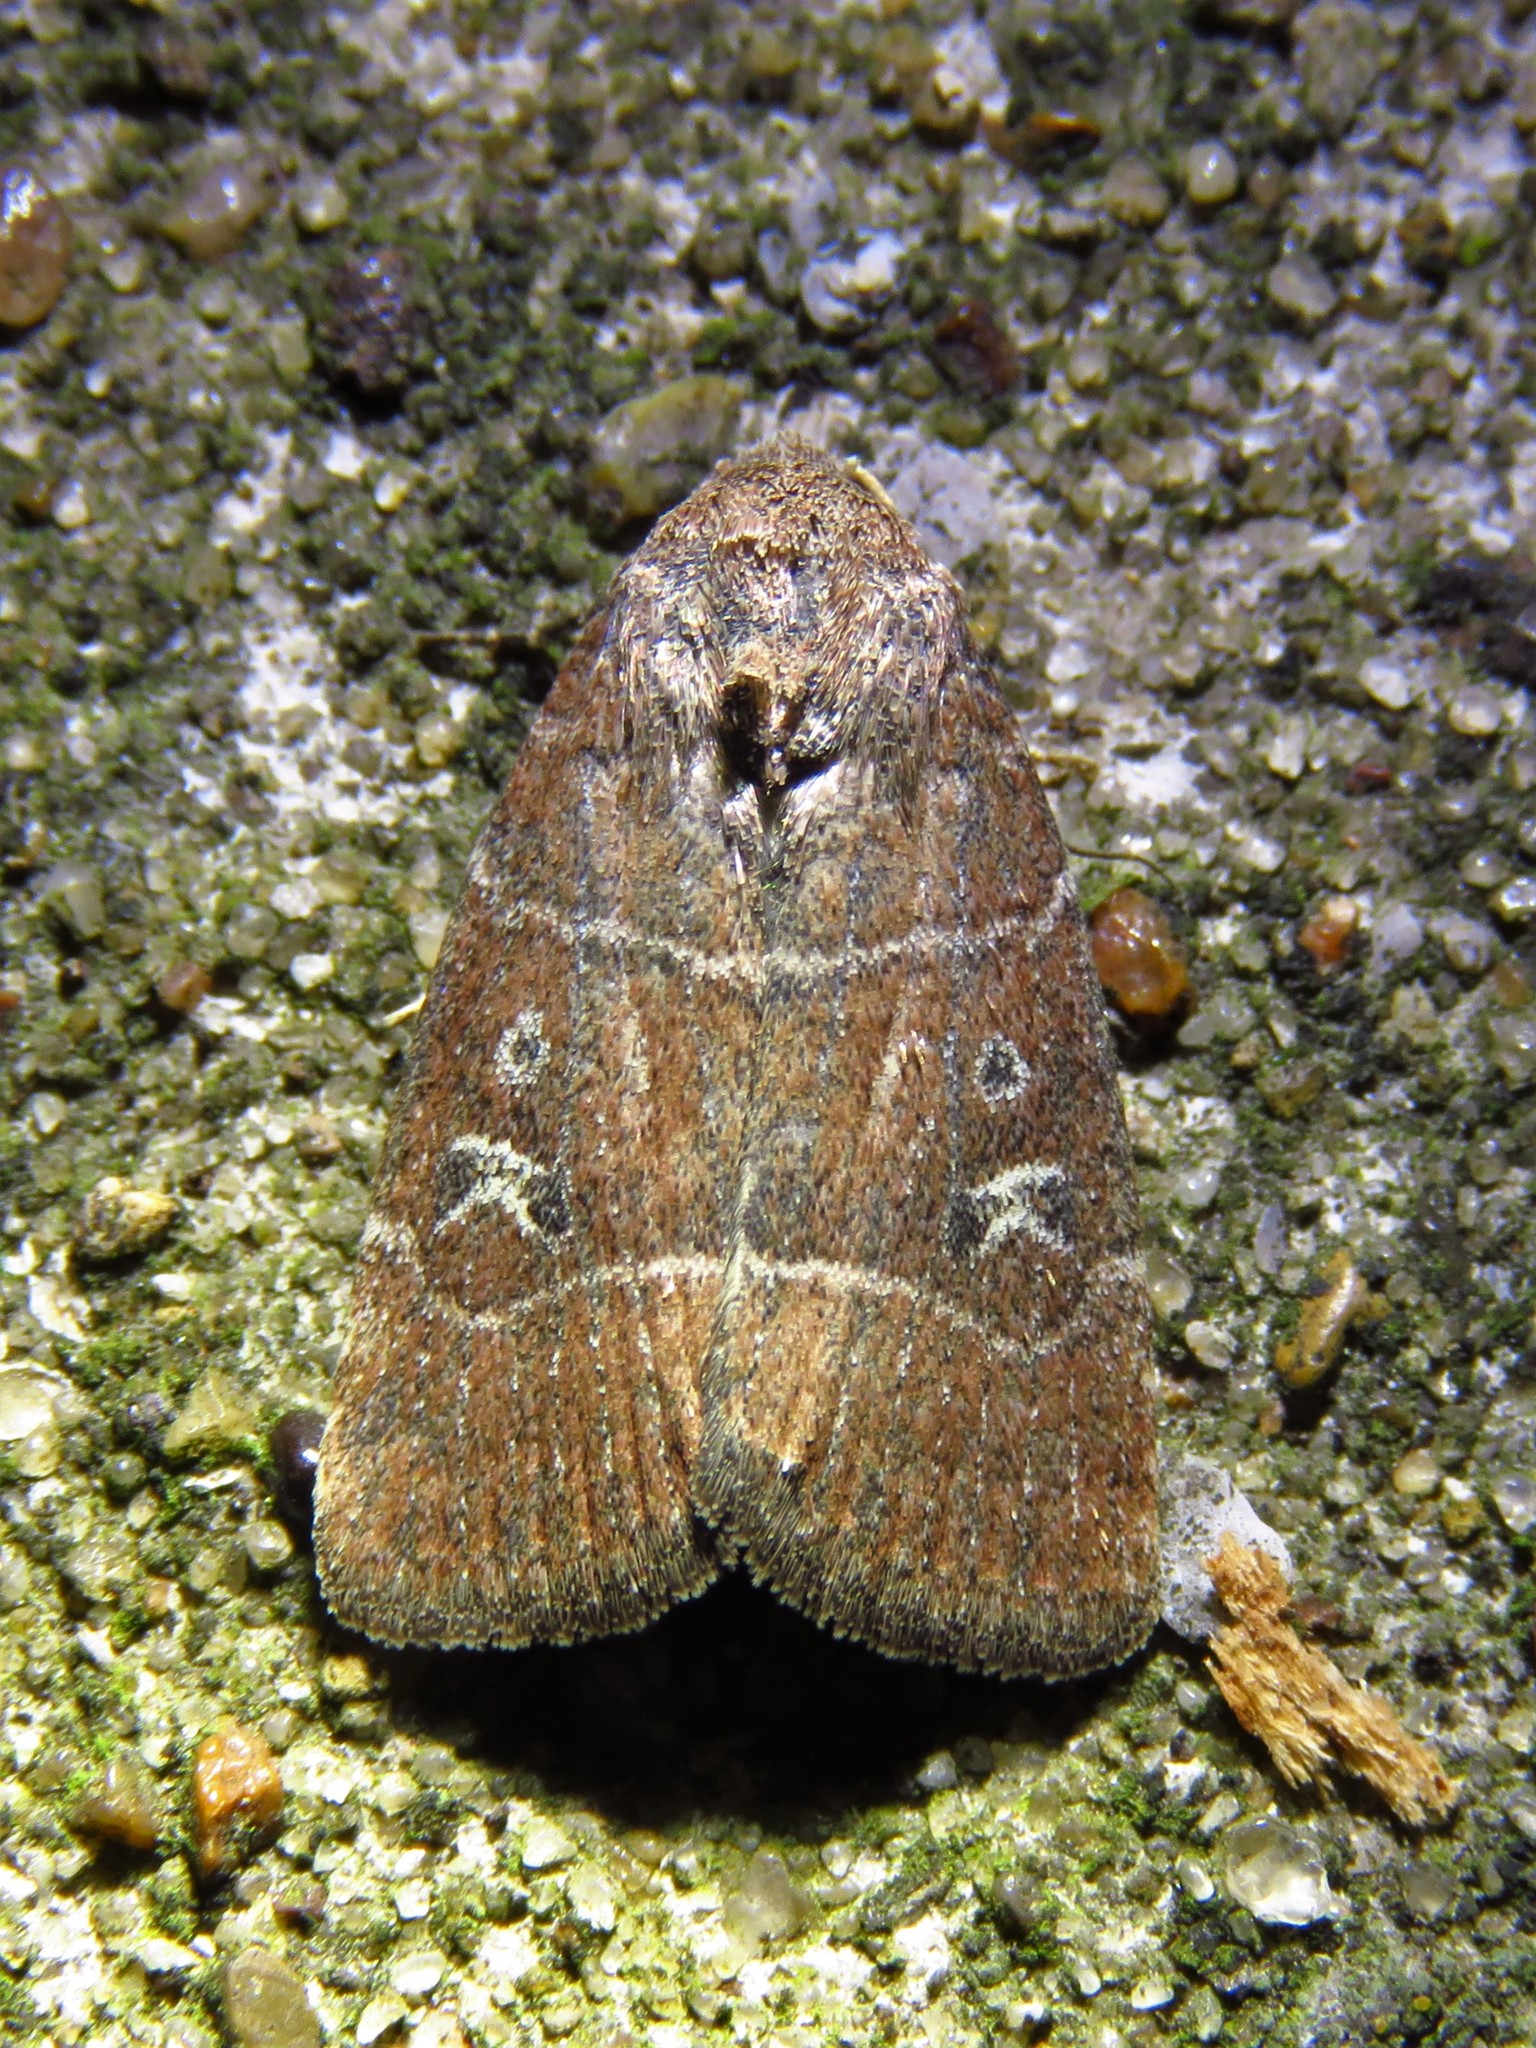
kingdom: Animalia
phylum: Arthropoda
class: Insecta
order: Lepidoptera
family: Noctuidae
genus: Elaphria
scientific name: Elaphria grata
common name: Grateful midget moth
